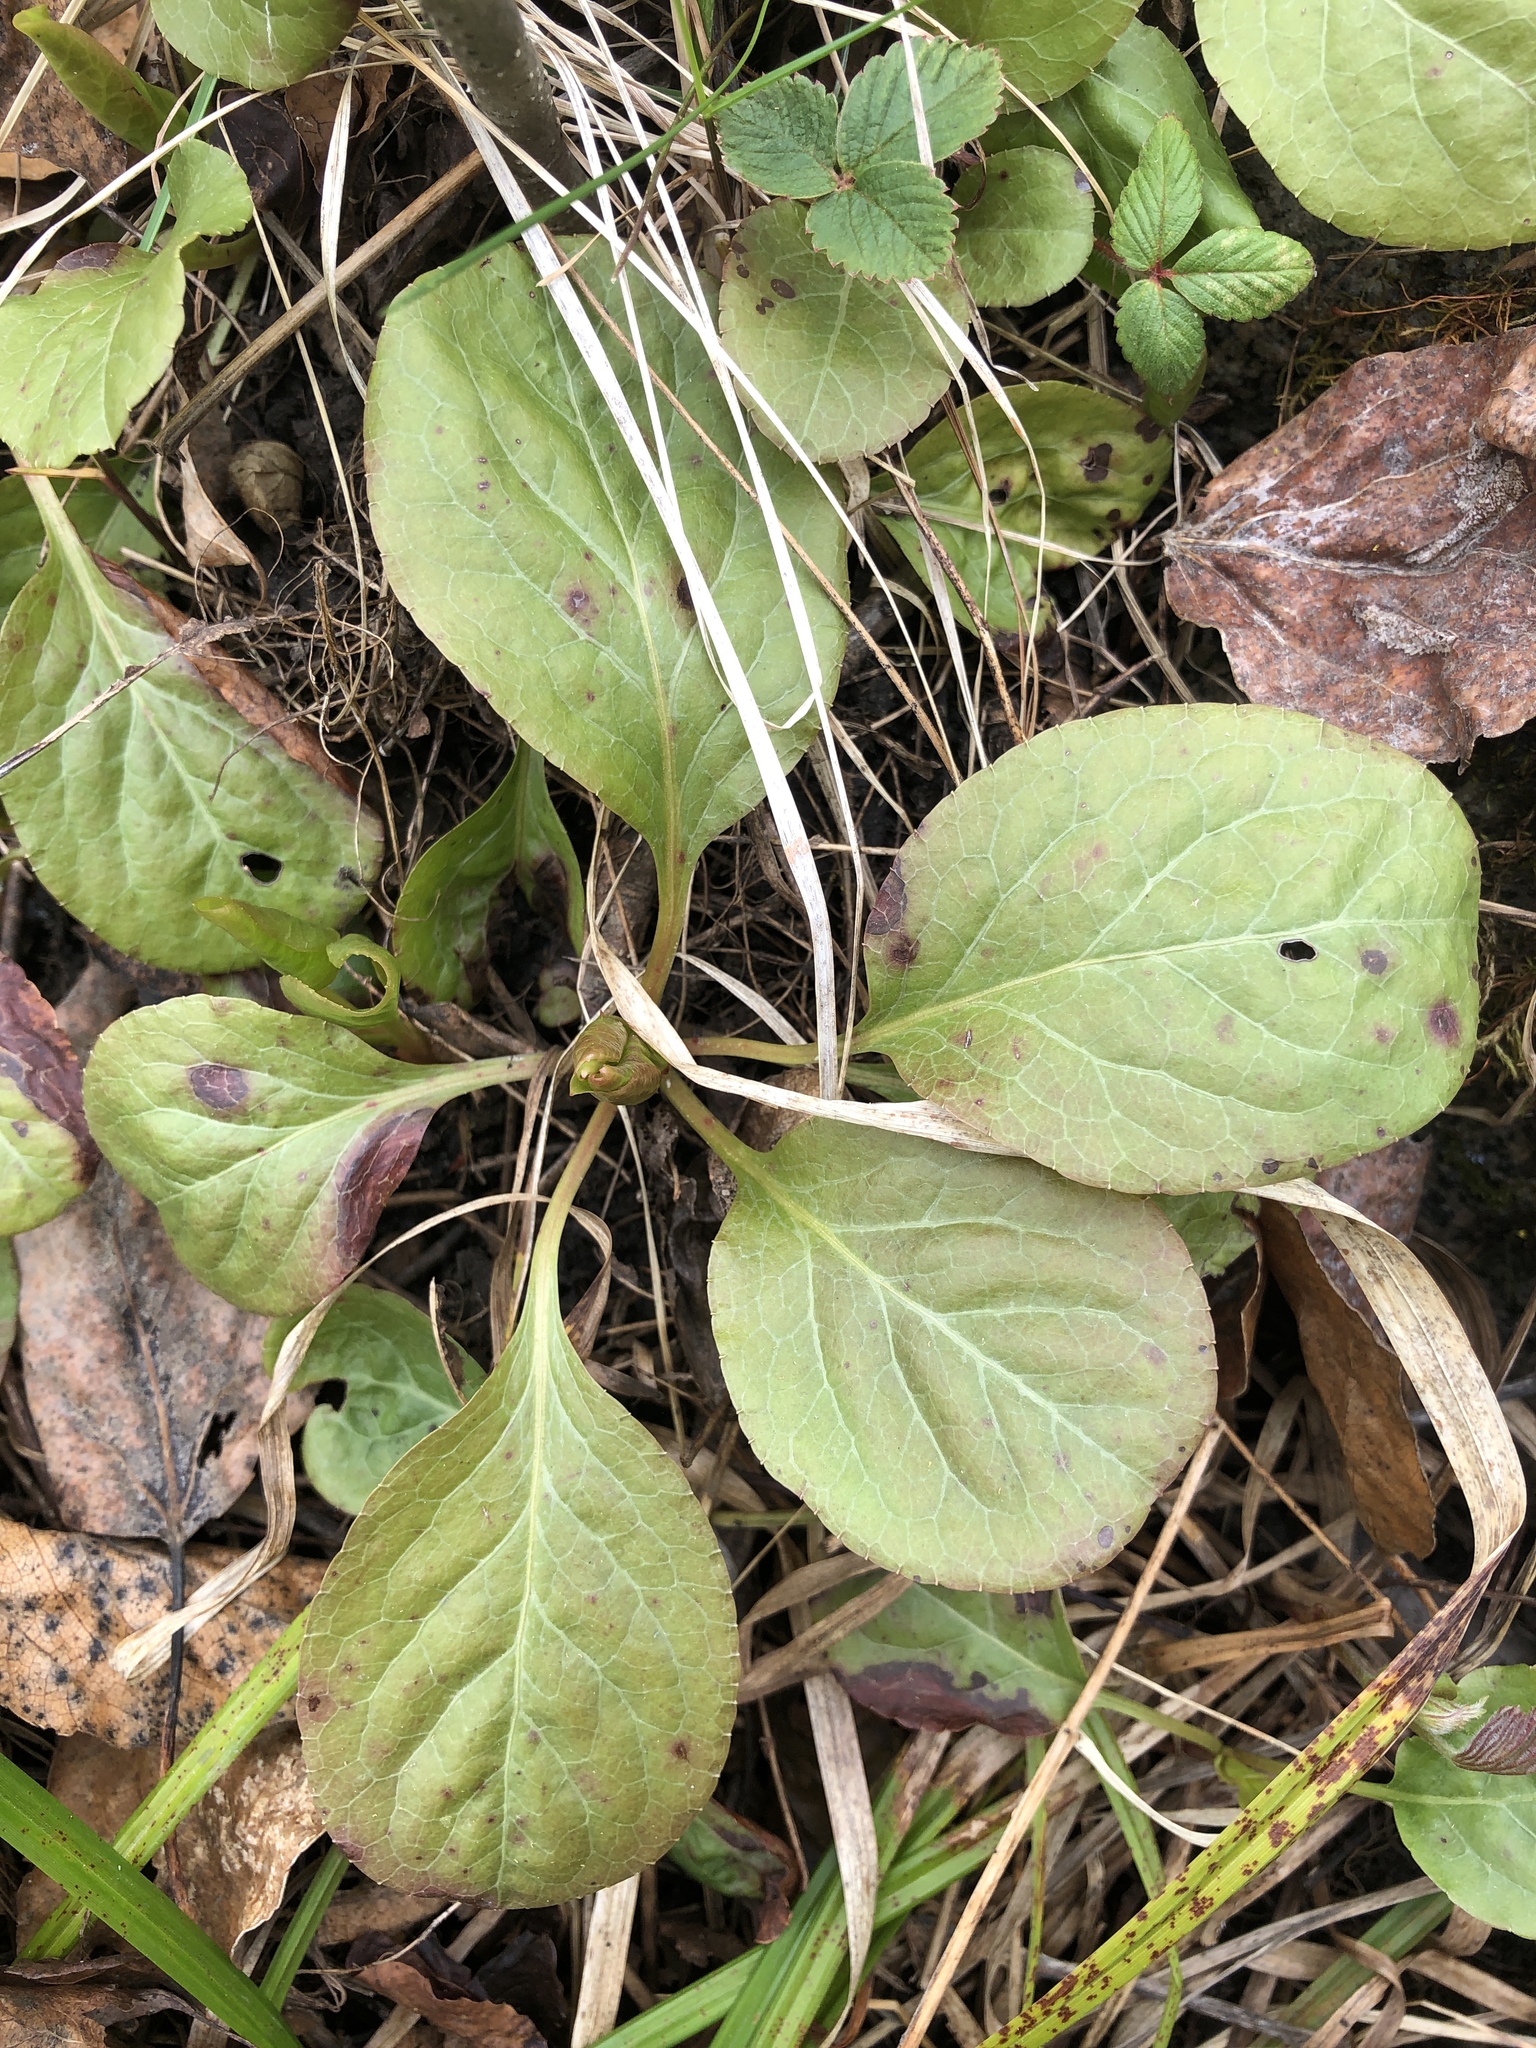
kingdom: Plantae
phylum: Tracheophyta
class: Magnoliopsida
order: Ericales
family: Ericaceae
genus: Pyrola
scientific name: Pyrola elliptica
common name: Shinleaf
